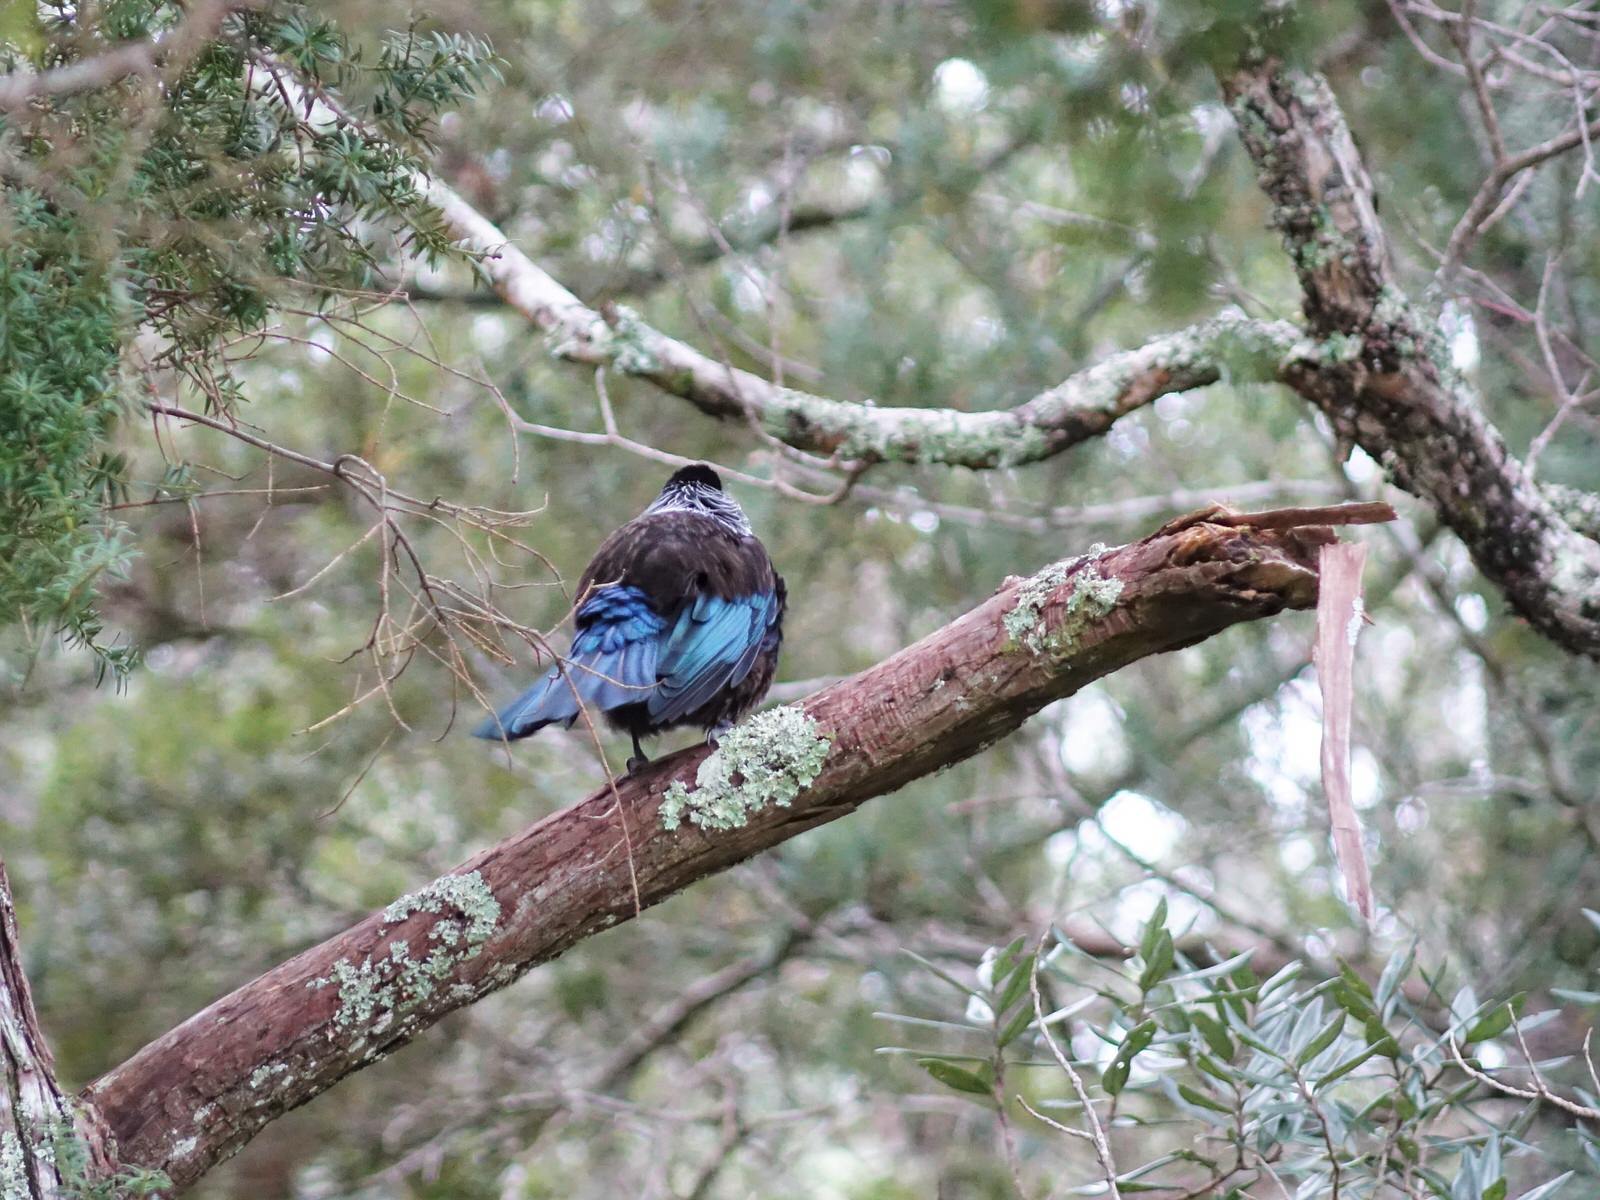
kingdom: Animalia
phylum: Chordata
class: Aves
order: Passeriformes
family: Meliphagidae
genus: Prosthemadera
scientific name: Prosthemadera novaeseelandiae
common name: Tui
